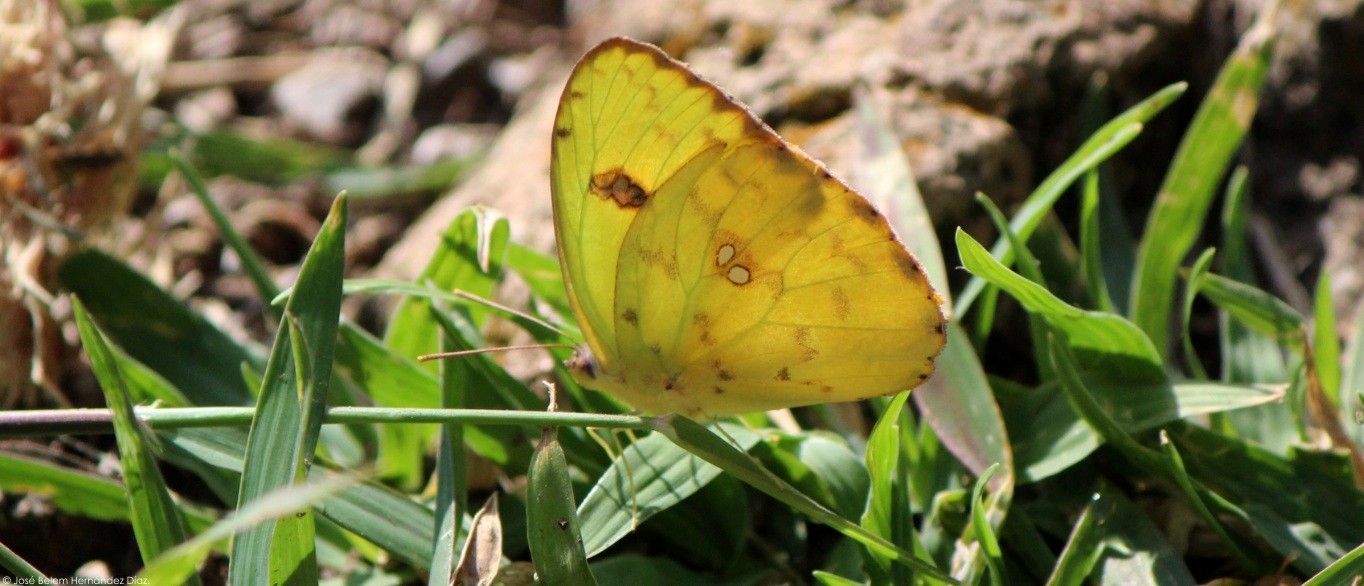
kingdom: Animalia
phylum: Arthropoda
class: Insecta
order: Lepidoptera
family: Pieridae
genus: Phoebis
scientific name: Phoebis sennae
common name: Cloudless sulphur
